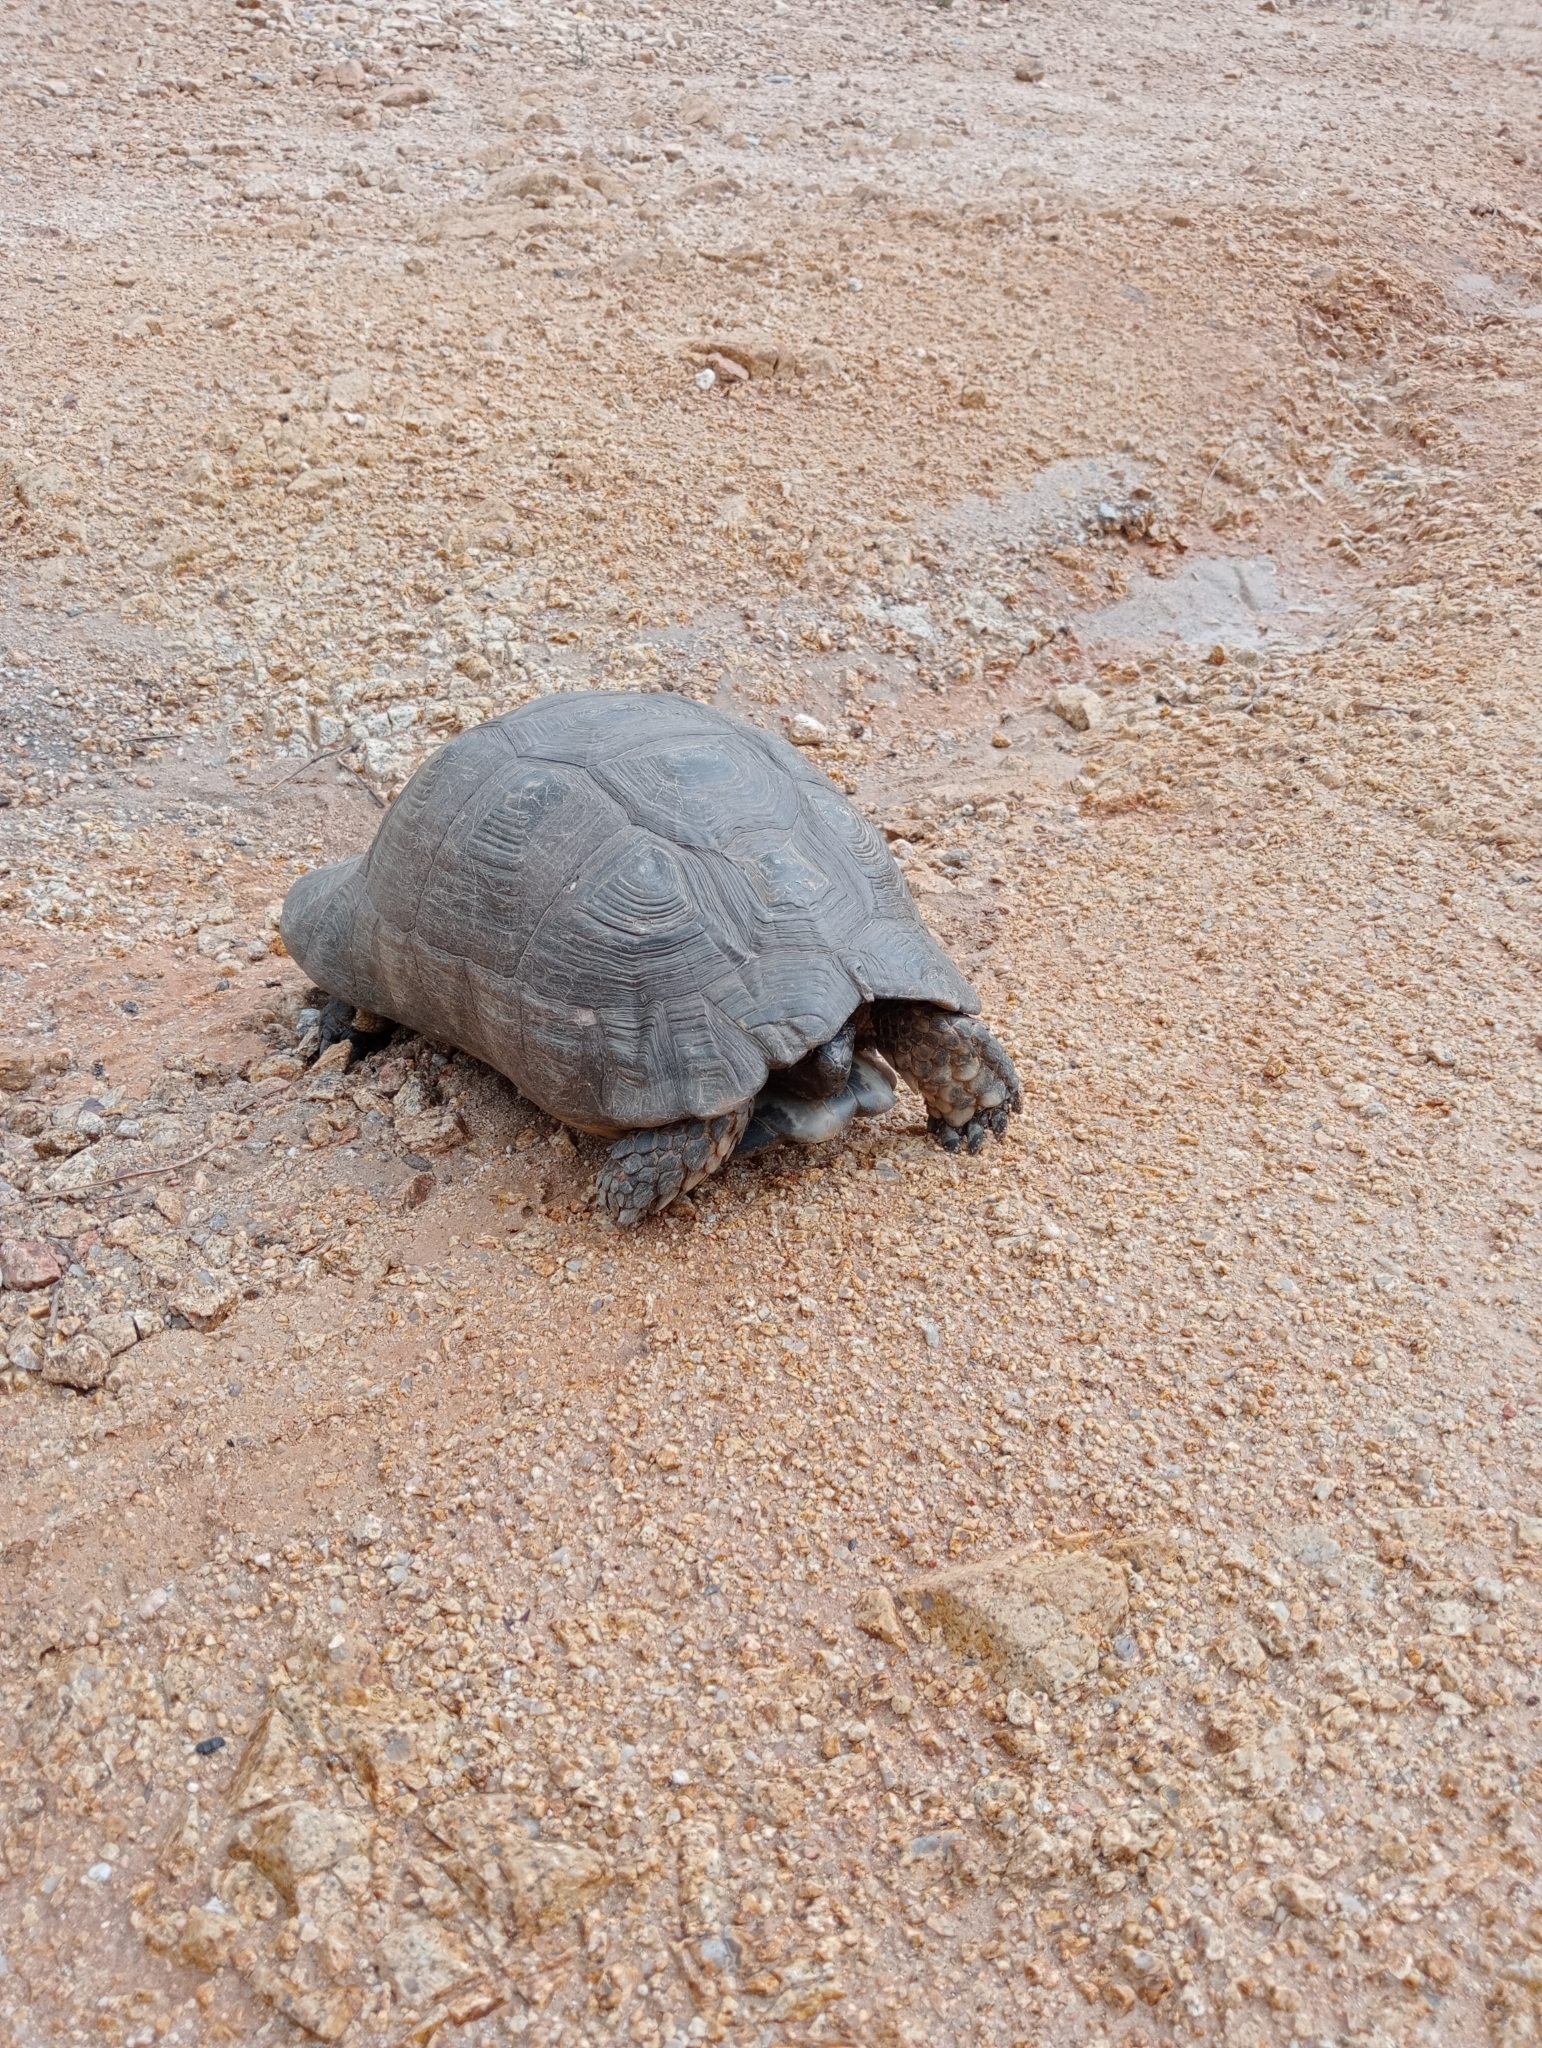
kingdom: Animalia
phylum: Chordata
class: Testudines
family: Testudinidae
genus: Testudo
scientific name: Testudo marginata
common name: Marginated tortoise
